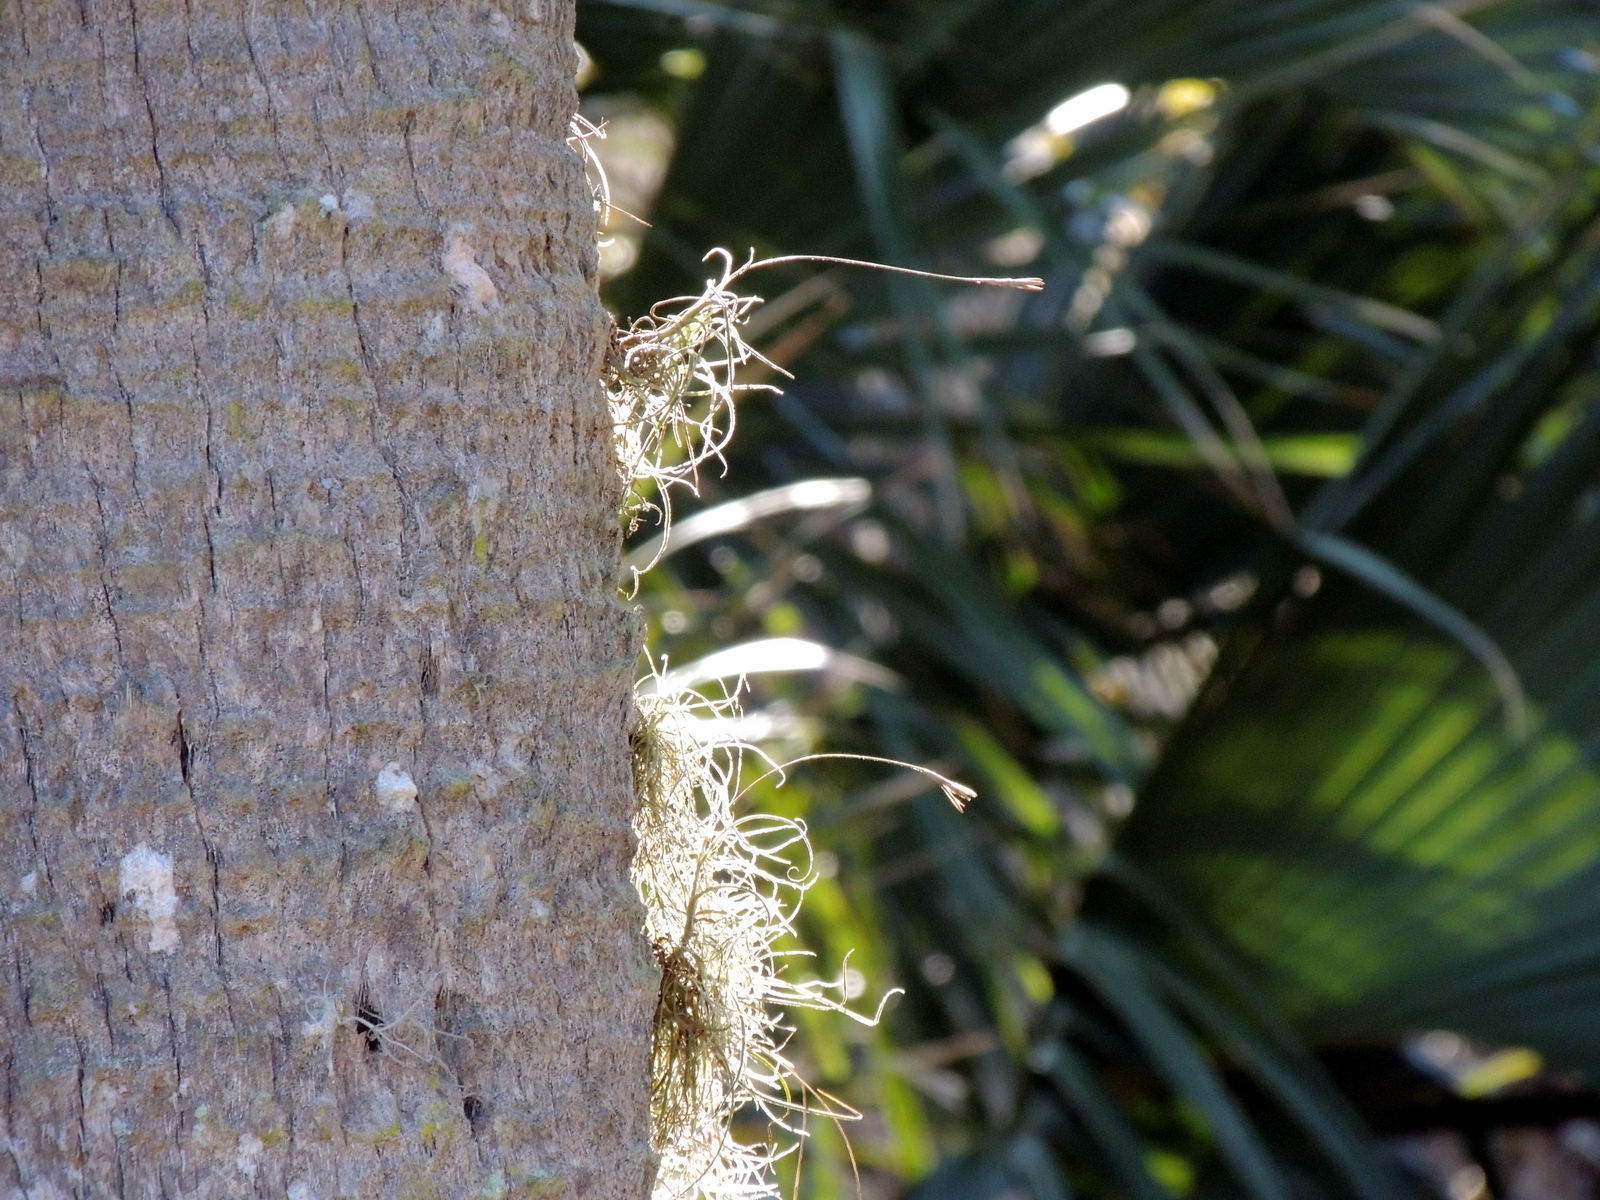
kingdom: Plantae
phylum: Tracheophyta
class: Liliopsida
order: Poales
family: Bromeliaceae
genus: Tillandsia
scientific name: Tillandsia recurvata
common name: Small ballmoss
